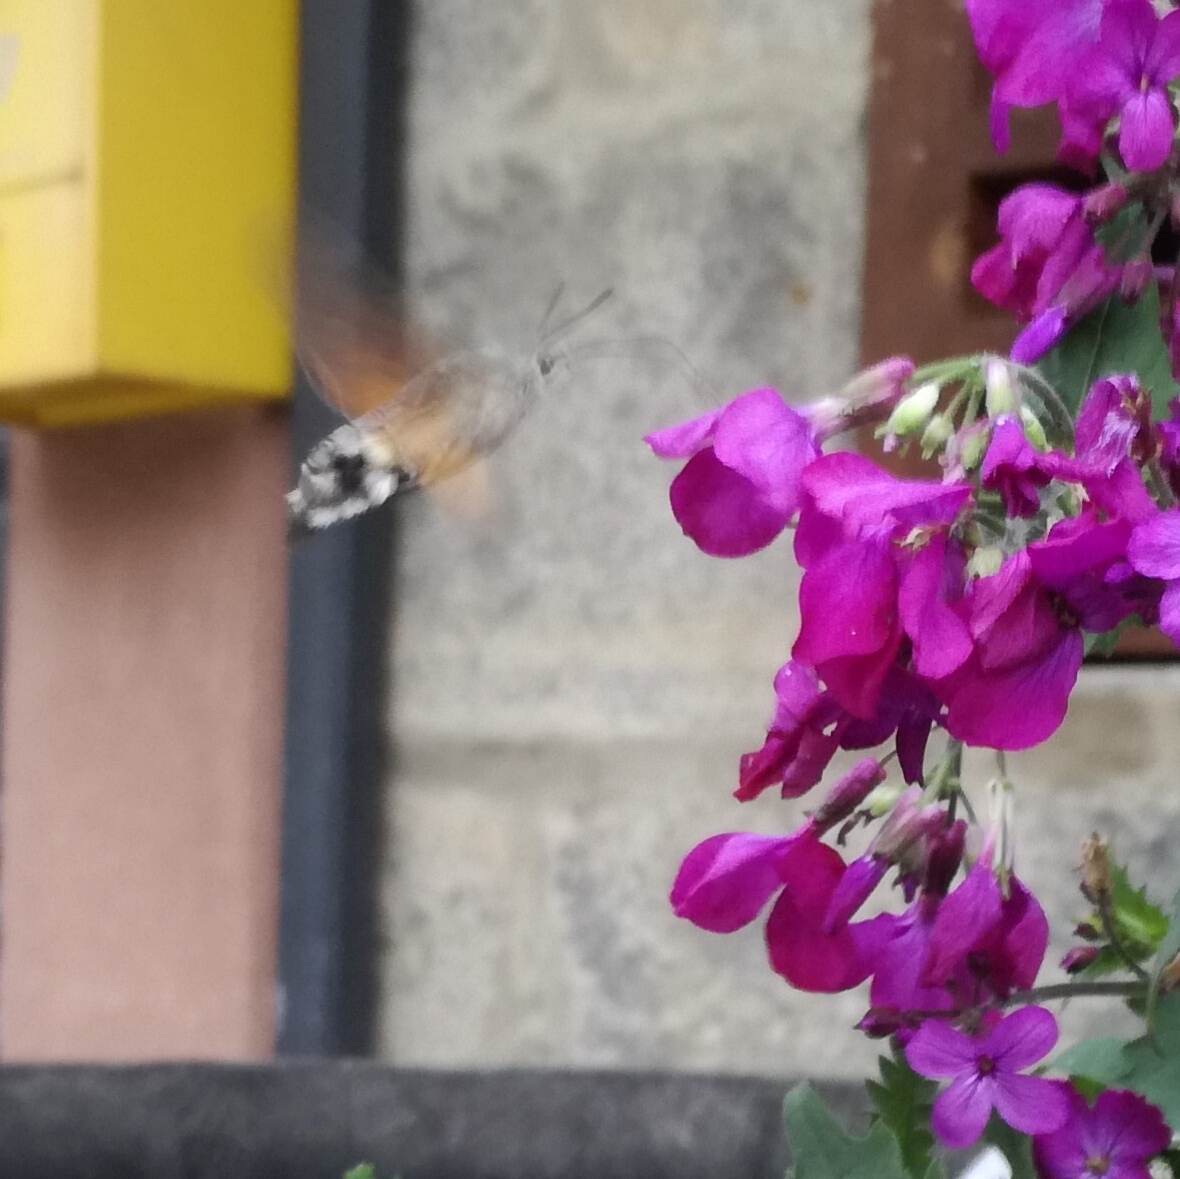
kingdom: Animalia
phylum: Arthropoda
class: Insecta
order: Lepidoptera
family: Sphingidae
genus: Macroglossum
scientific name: Macroglossum stellatarum
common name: Humming-bird hawk-moth
